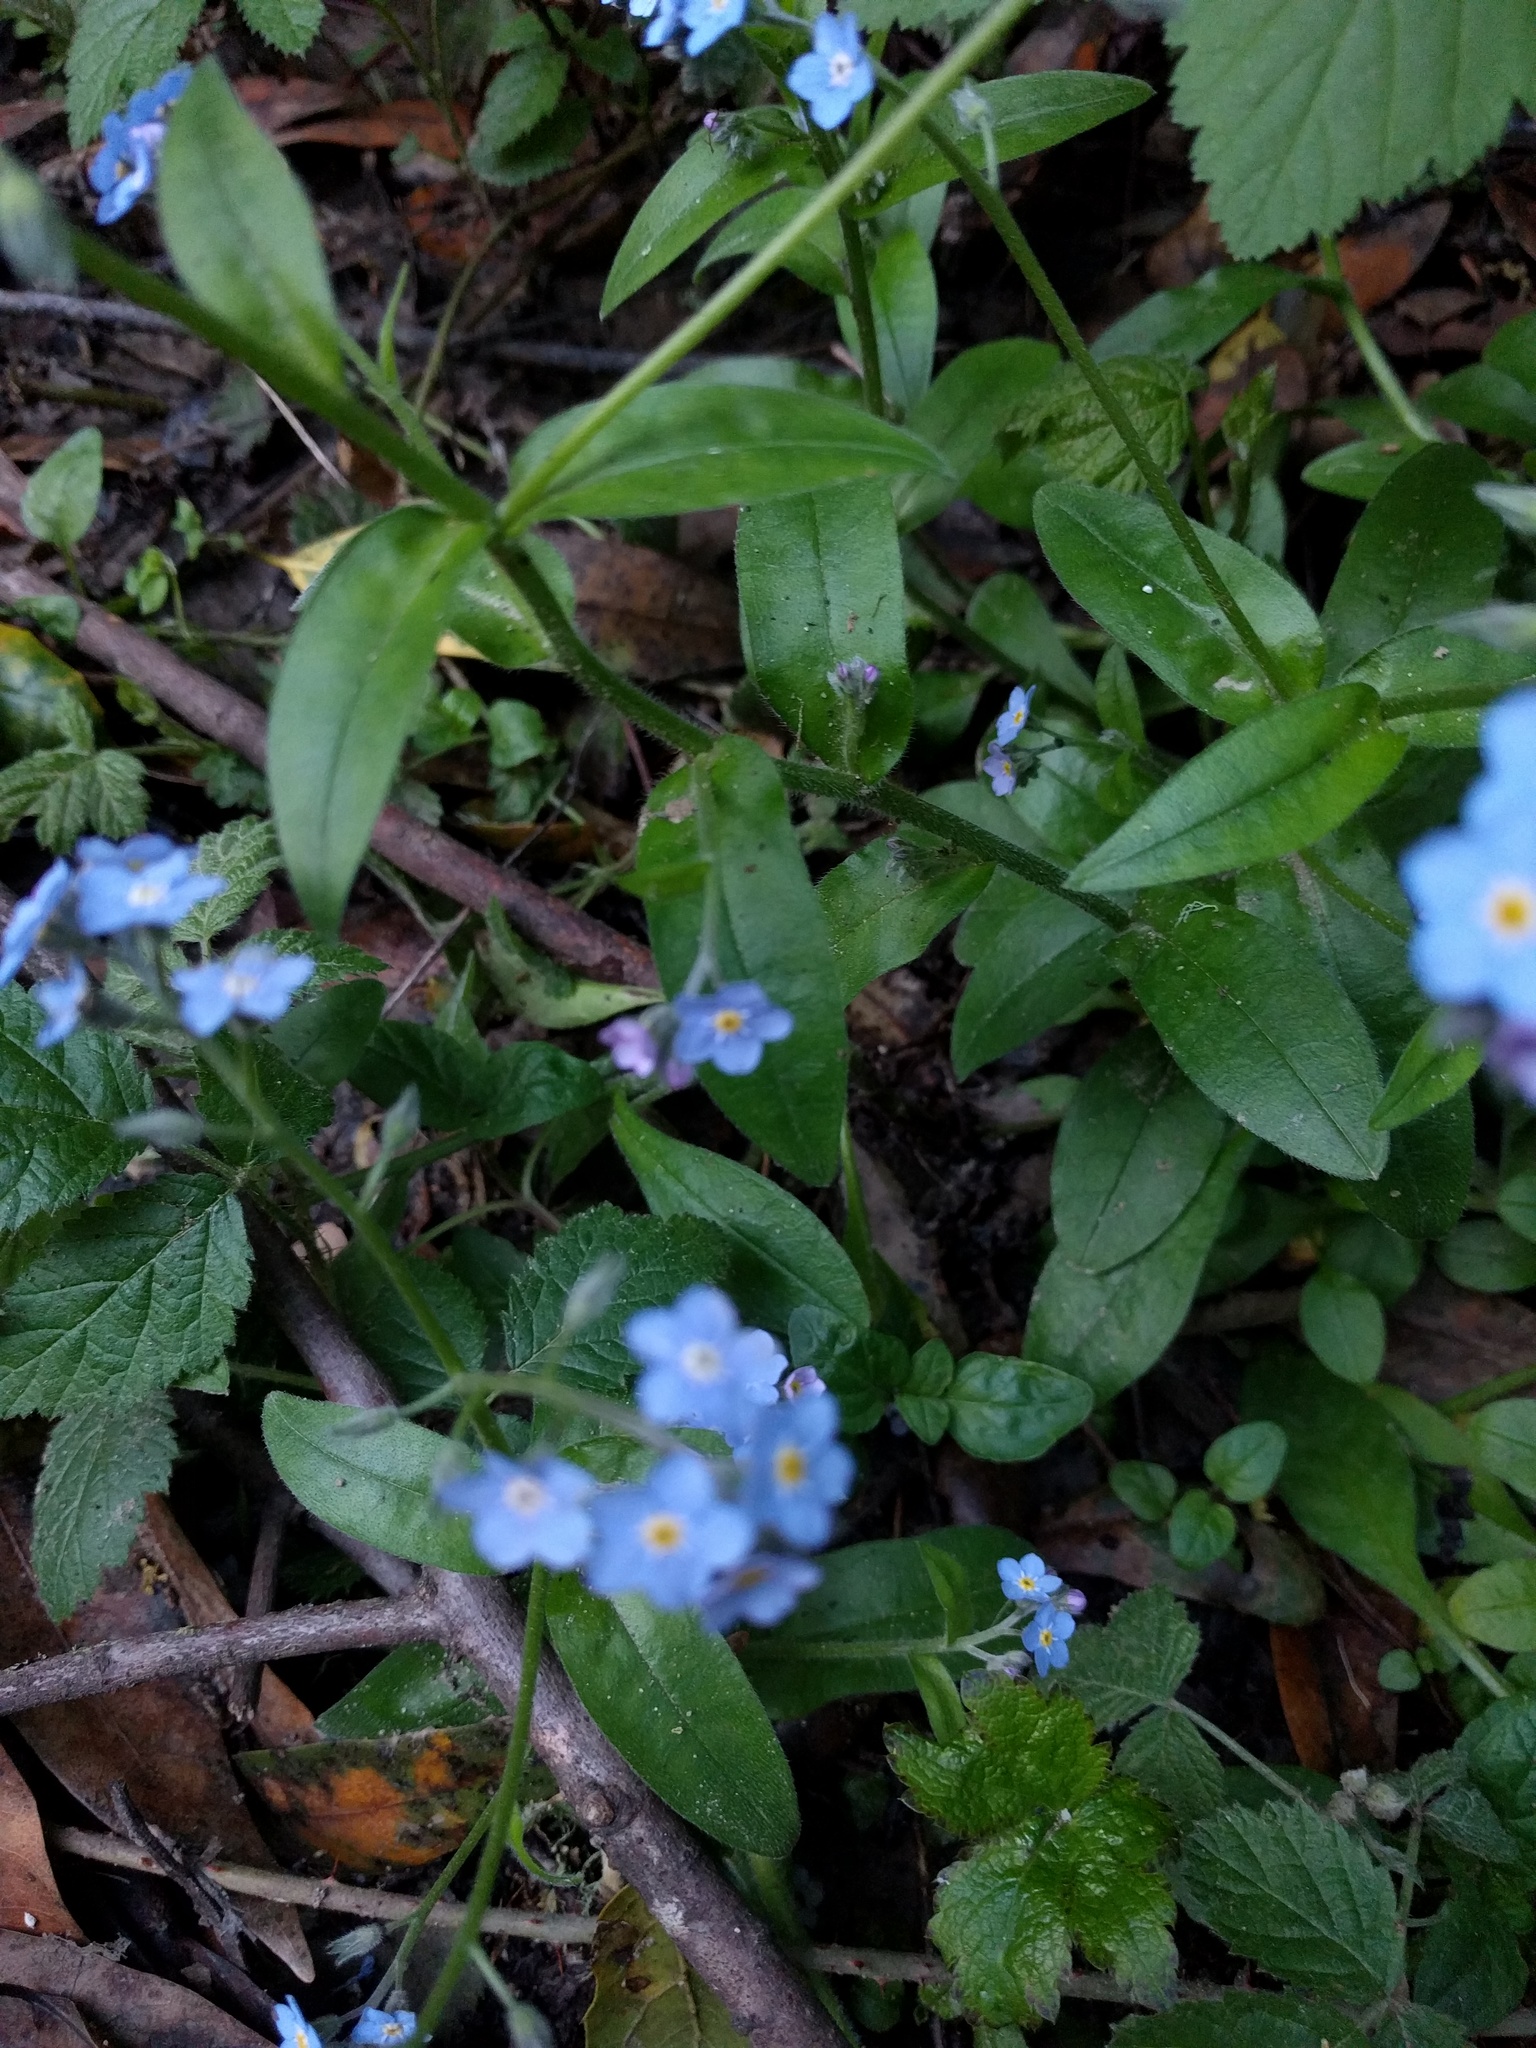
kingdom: Plantae
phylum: Tracheophyta
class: Magnoliopsida
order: Boraginales
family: Boraginaceae
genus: Myosotis
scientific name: Myosotis latifolia
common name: Broadleaf forget-me-not
